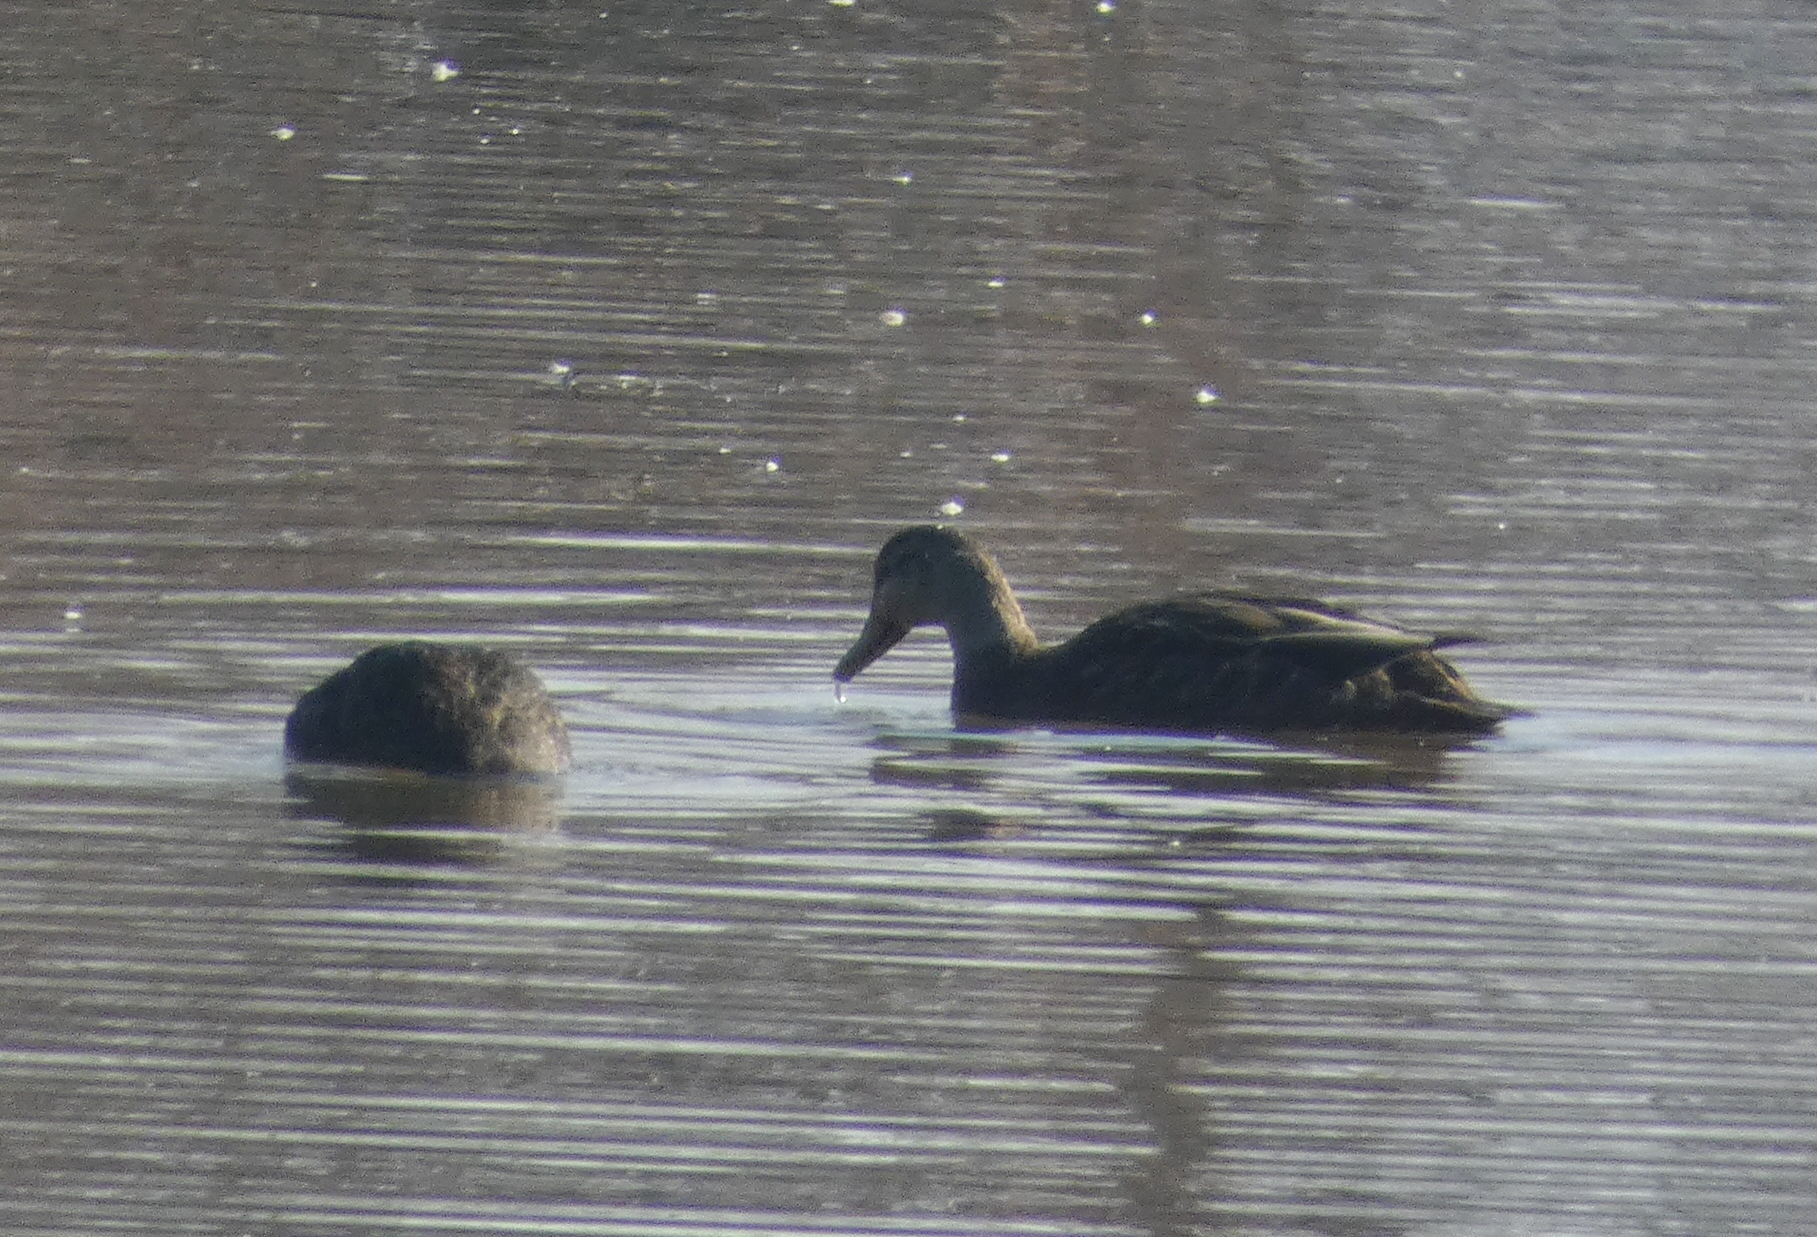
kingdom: Animalia
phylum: Chordata
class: Aves
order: Anseriformes
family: Anatidae
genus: Anas
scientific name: Anas rubripes
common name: American black duck
